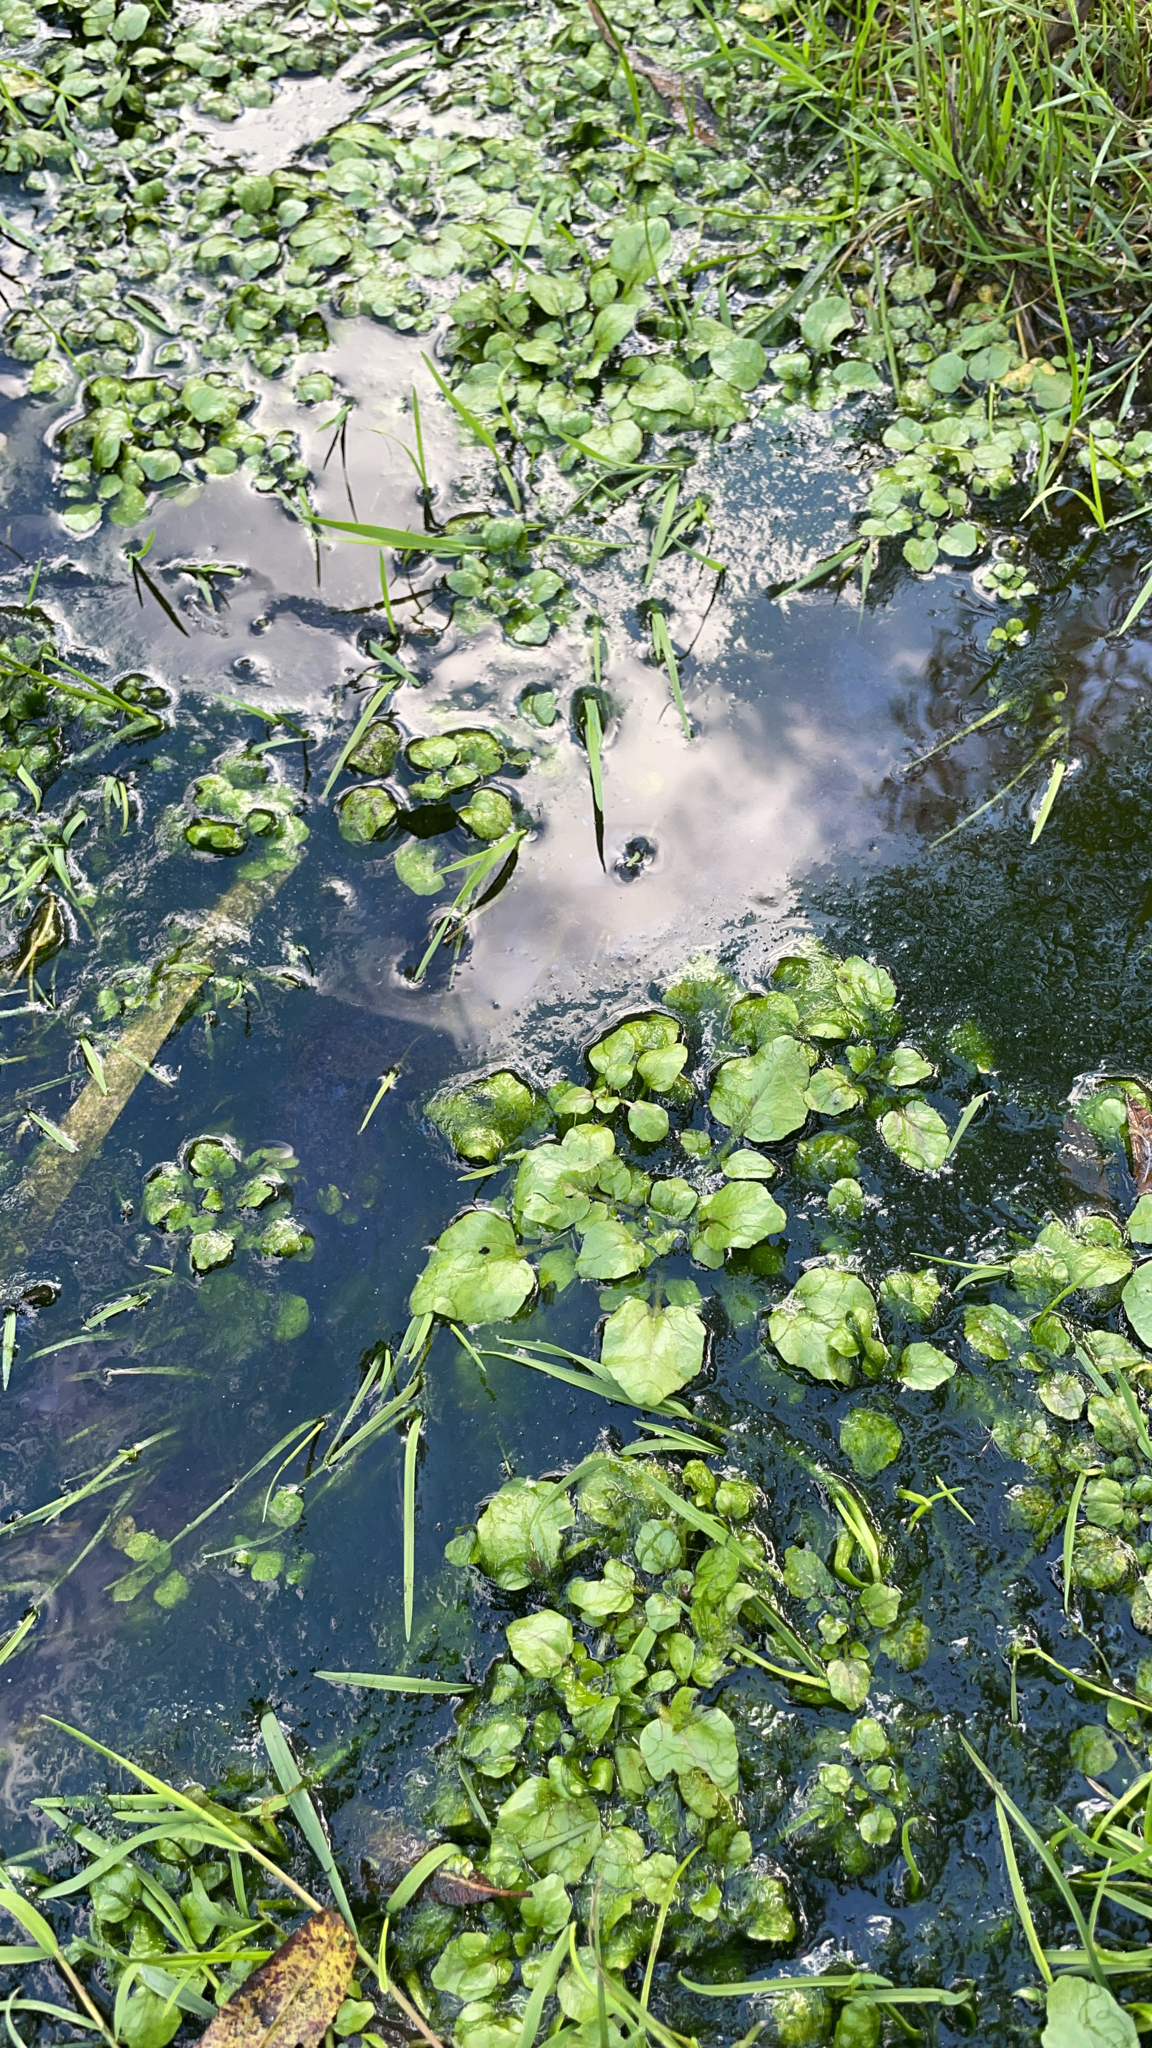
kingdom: Plantae
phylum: Tracheophyta
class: Magnoliopsida
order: Brassicales
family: Brassicaceae
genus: Nasturtium
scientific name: Nasturtium officinale
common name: Watercress
